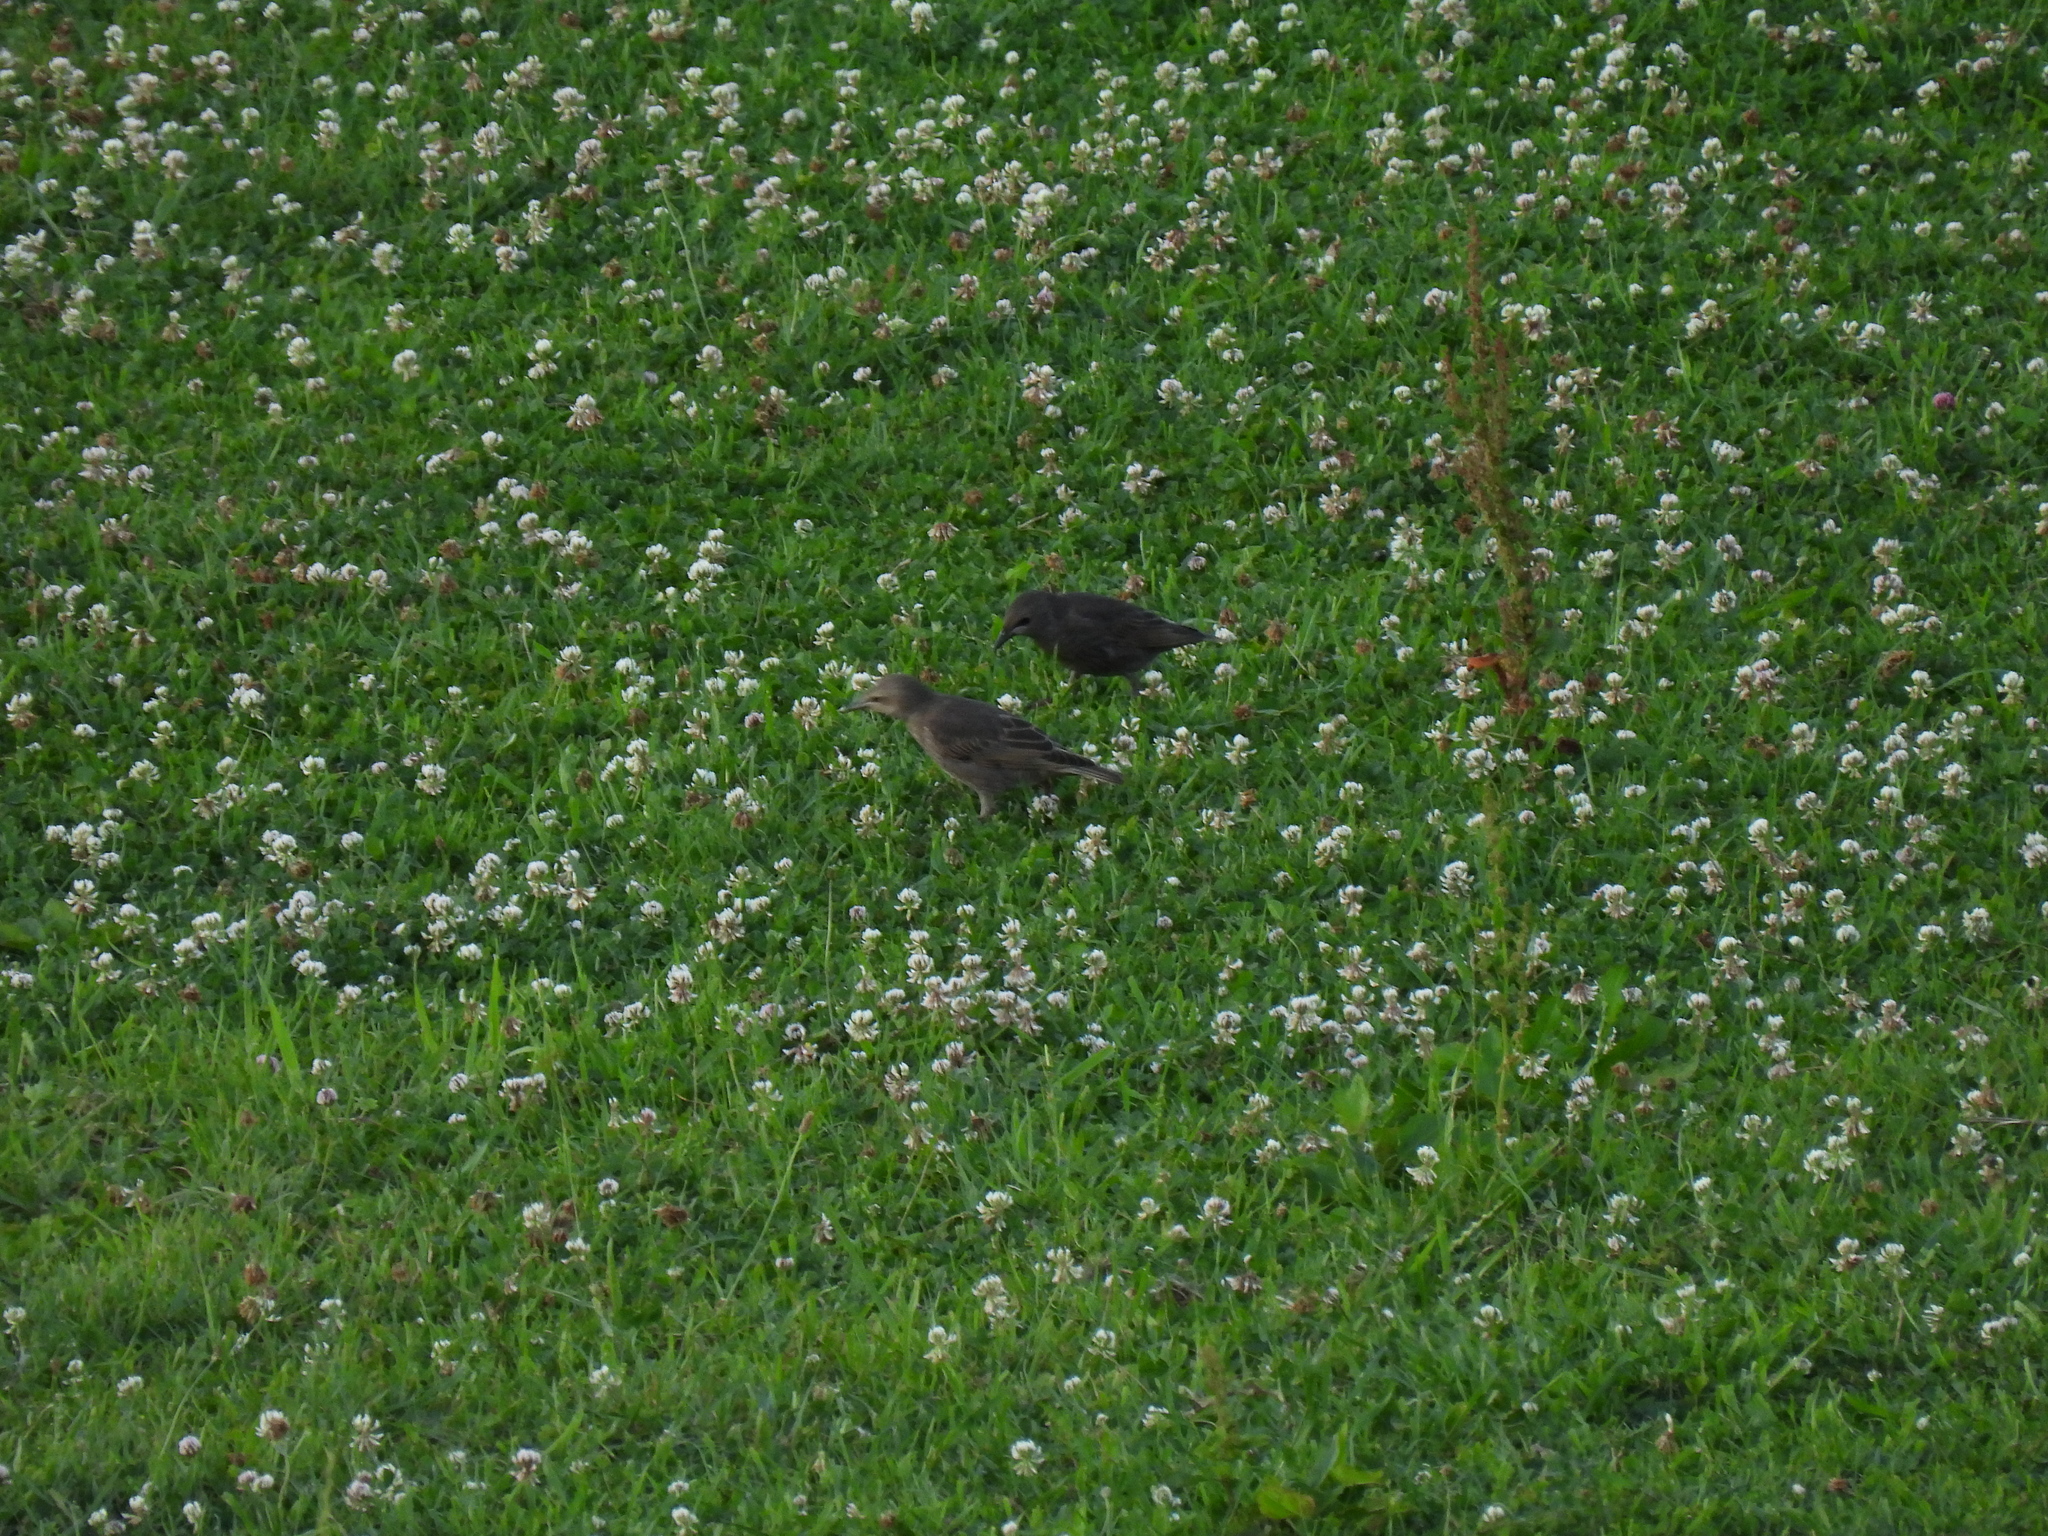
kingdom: Animalia
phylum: Chordata
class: Aves
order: Passeriformes
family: Sturnidae
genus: Sturnus
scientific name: Sturnus vulgaris
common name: Common starling
